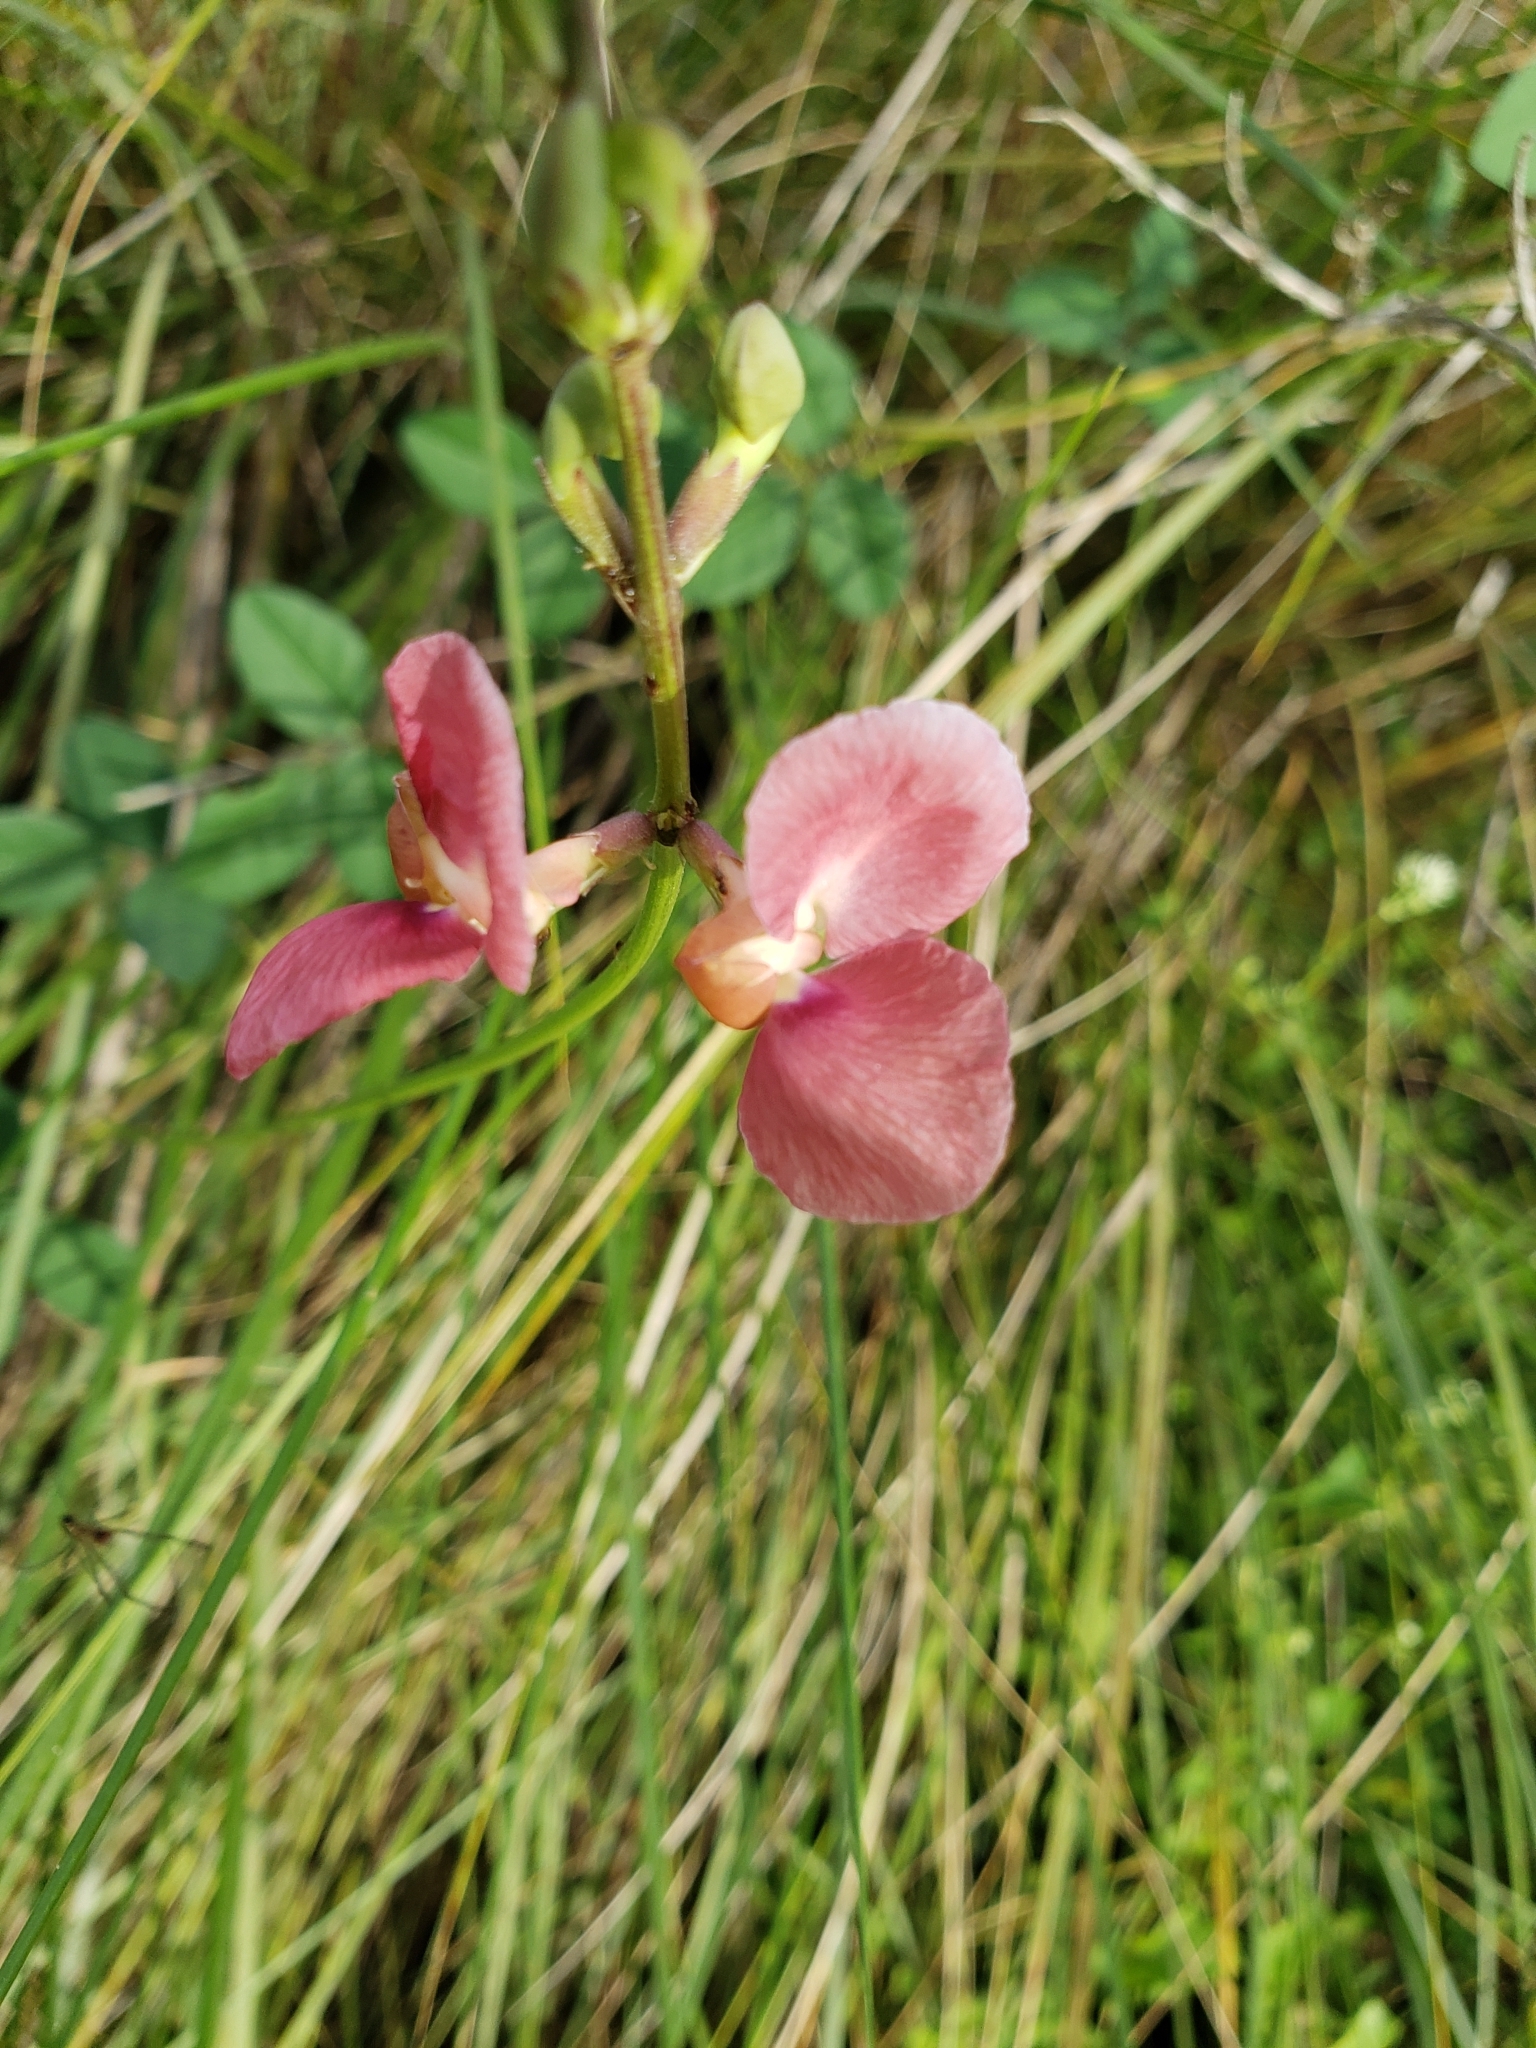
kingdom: Plantae
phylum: Tracheophyta
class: Magnoliopsida
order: Fabales
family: Fabaceae
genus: Macroptilium
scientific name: Macroptilium lathyroides
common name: Wild bushbean
